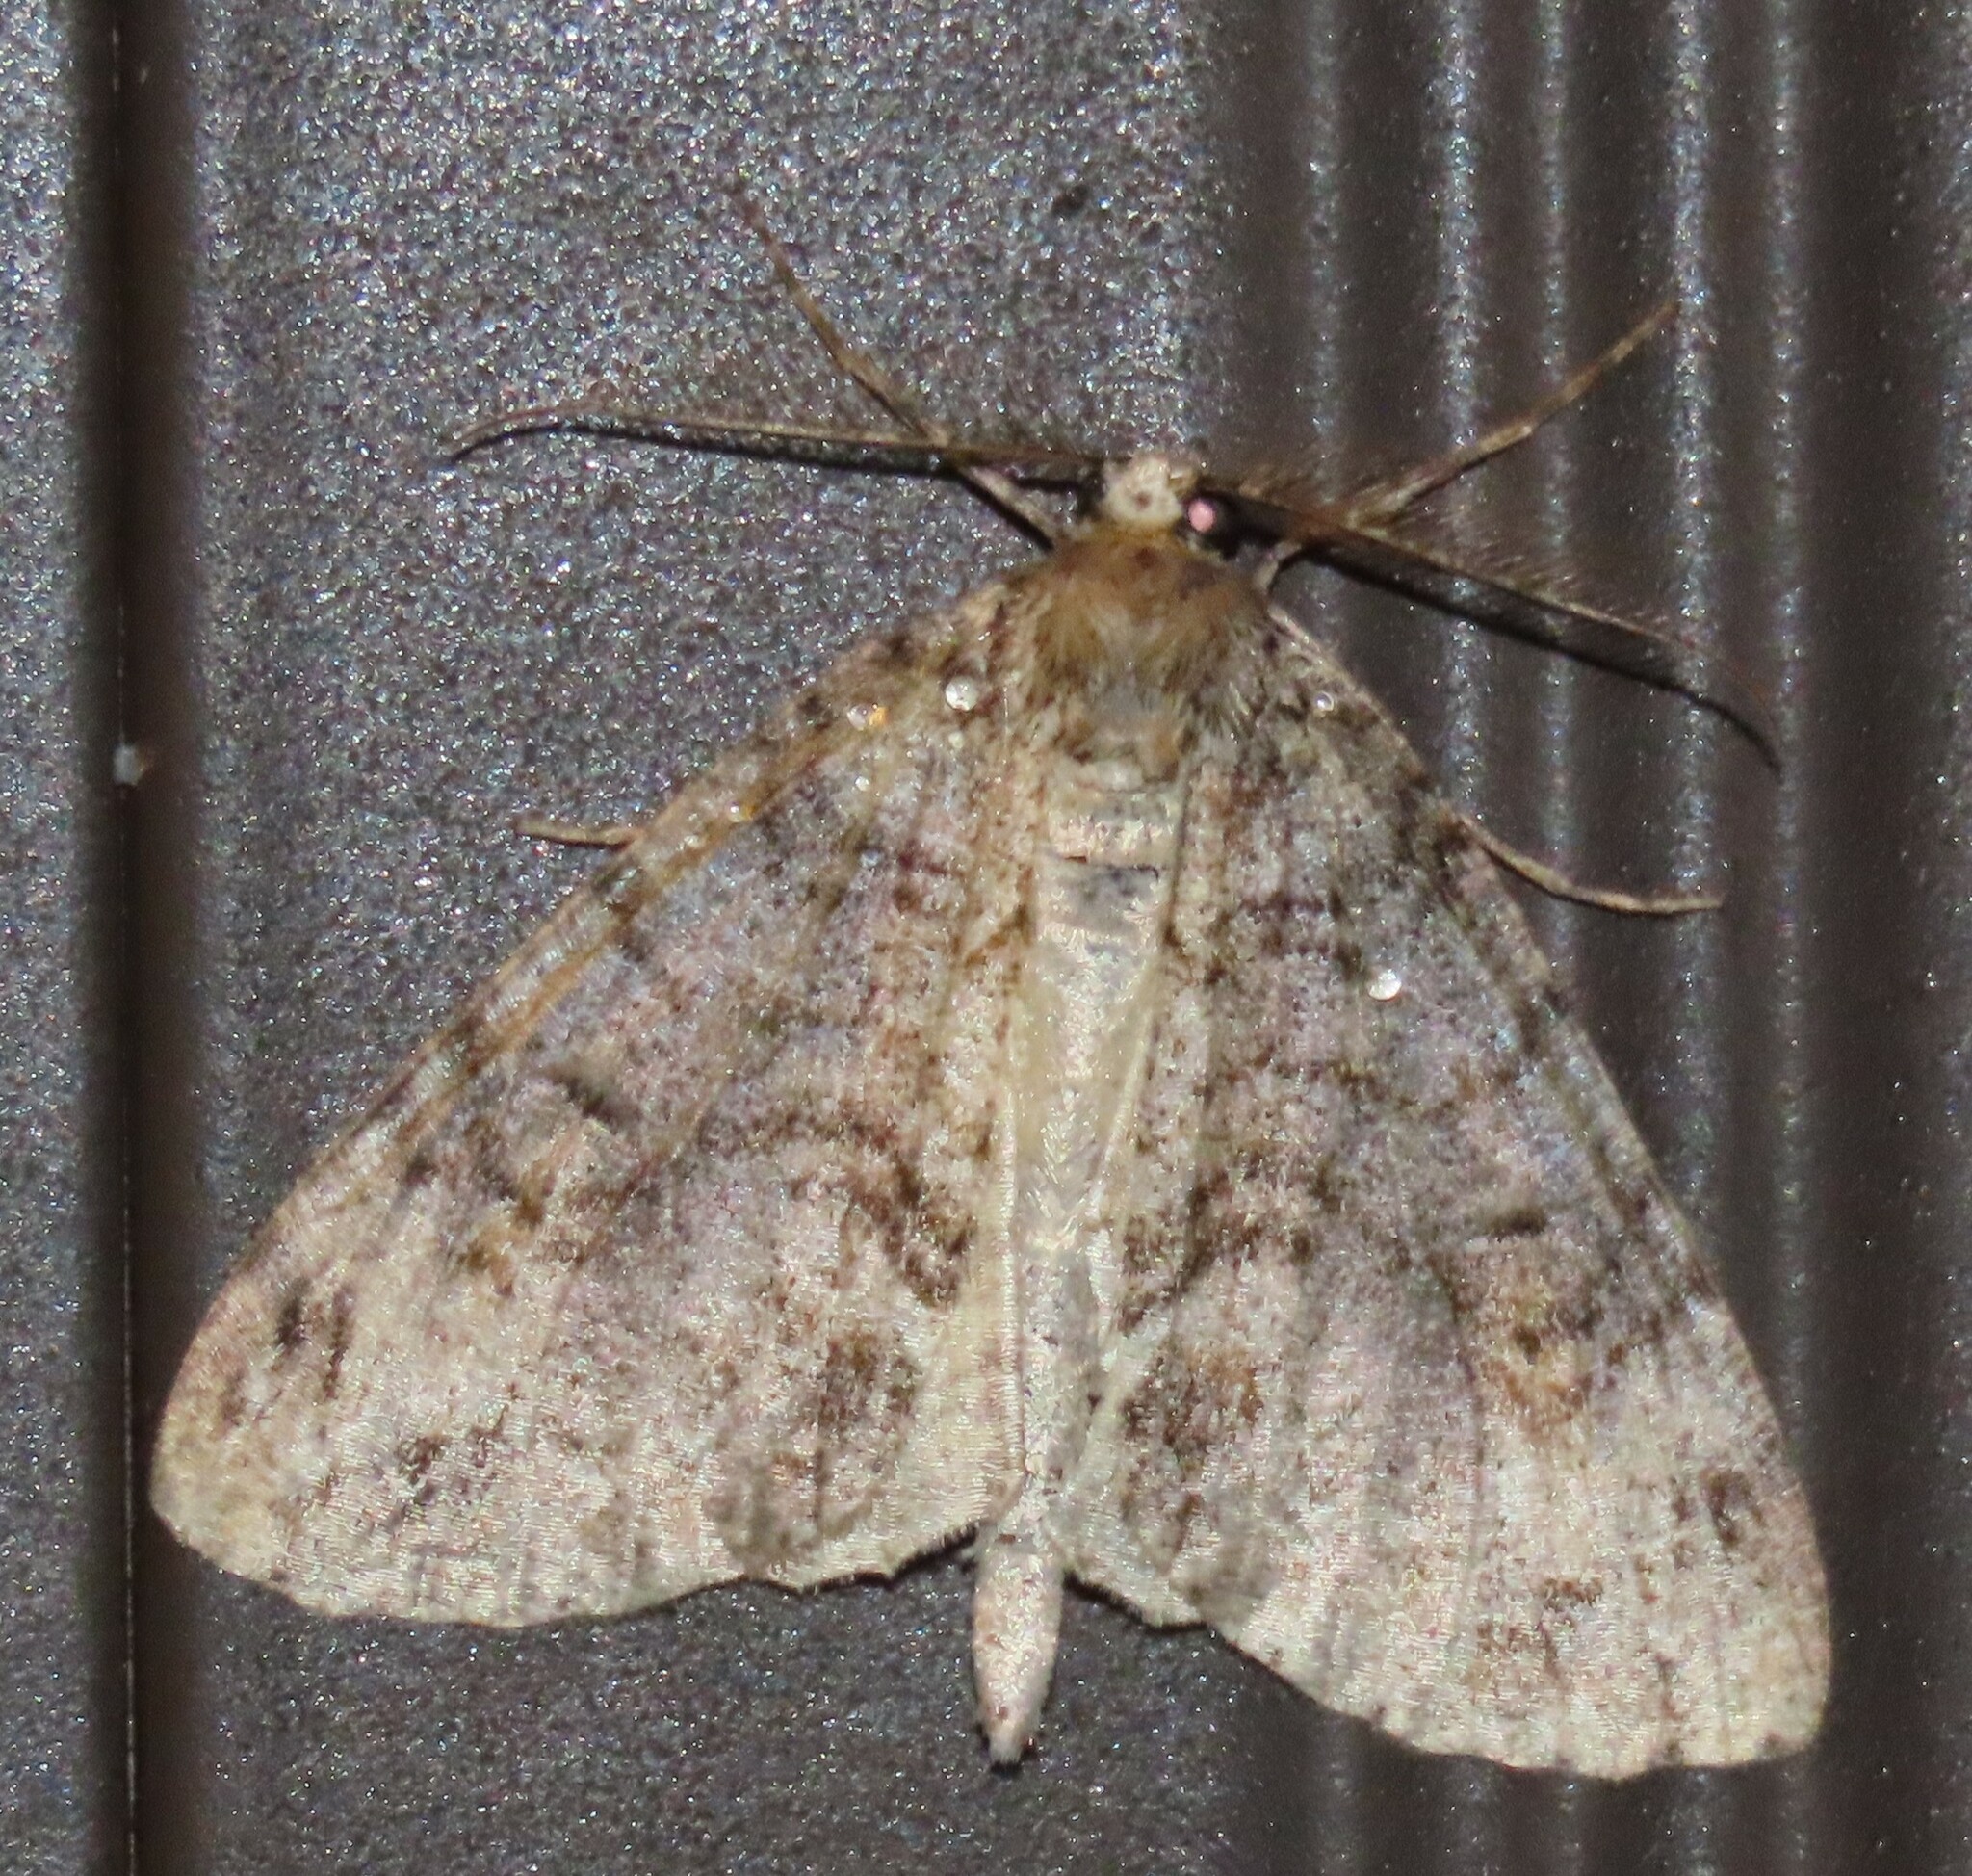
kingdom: Animalia
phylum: Arthropoda
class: Insecta
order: Lepidoptera
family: Geometridae
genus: Pseudocoremia
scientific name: Pseudocoremia suavis
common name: Common forest looper
